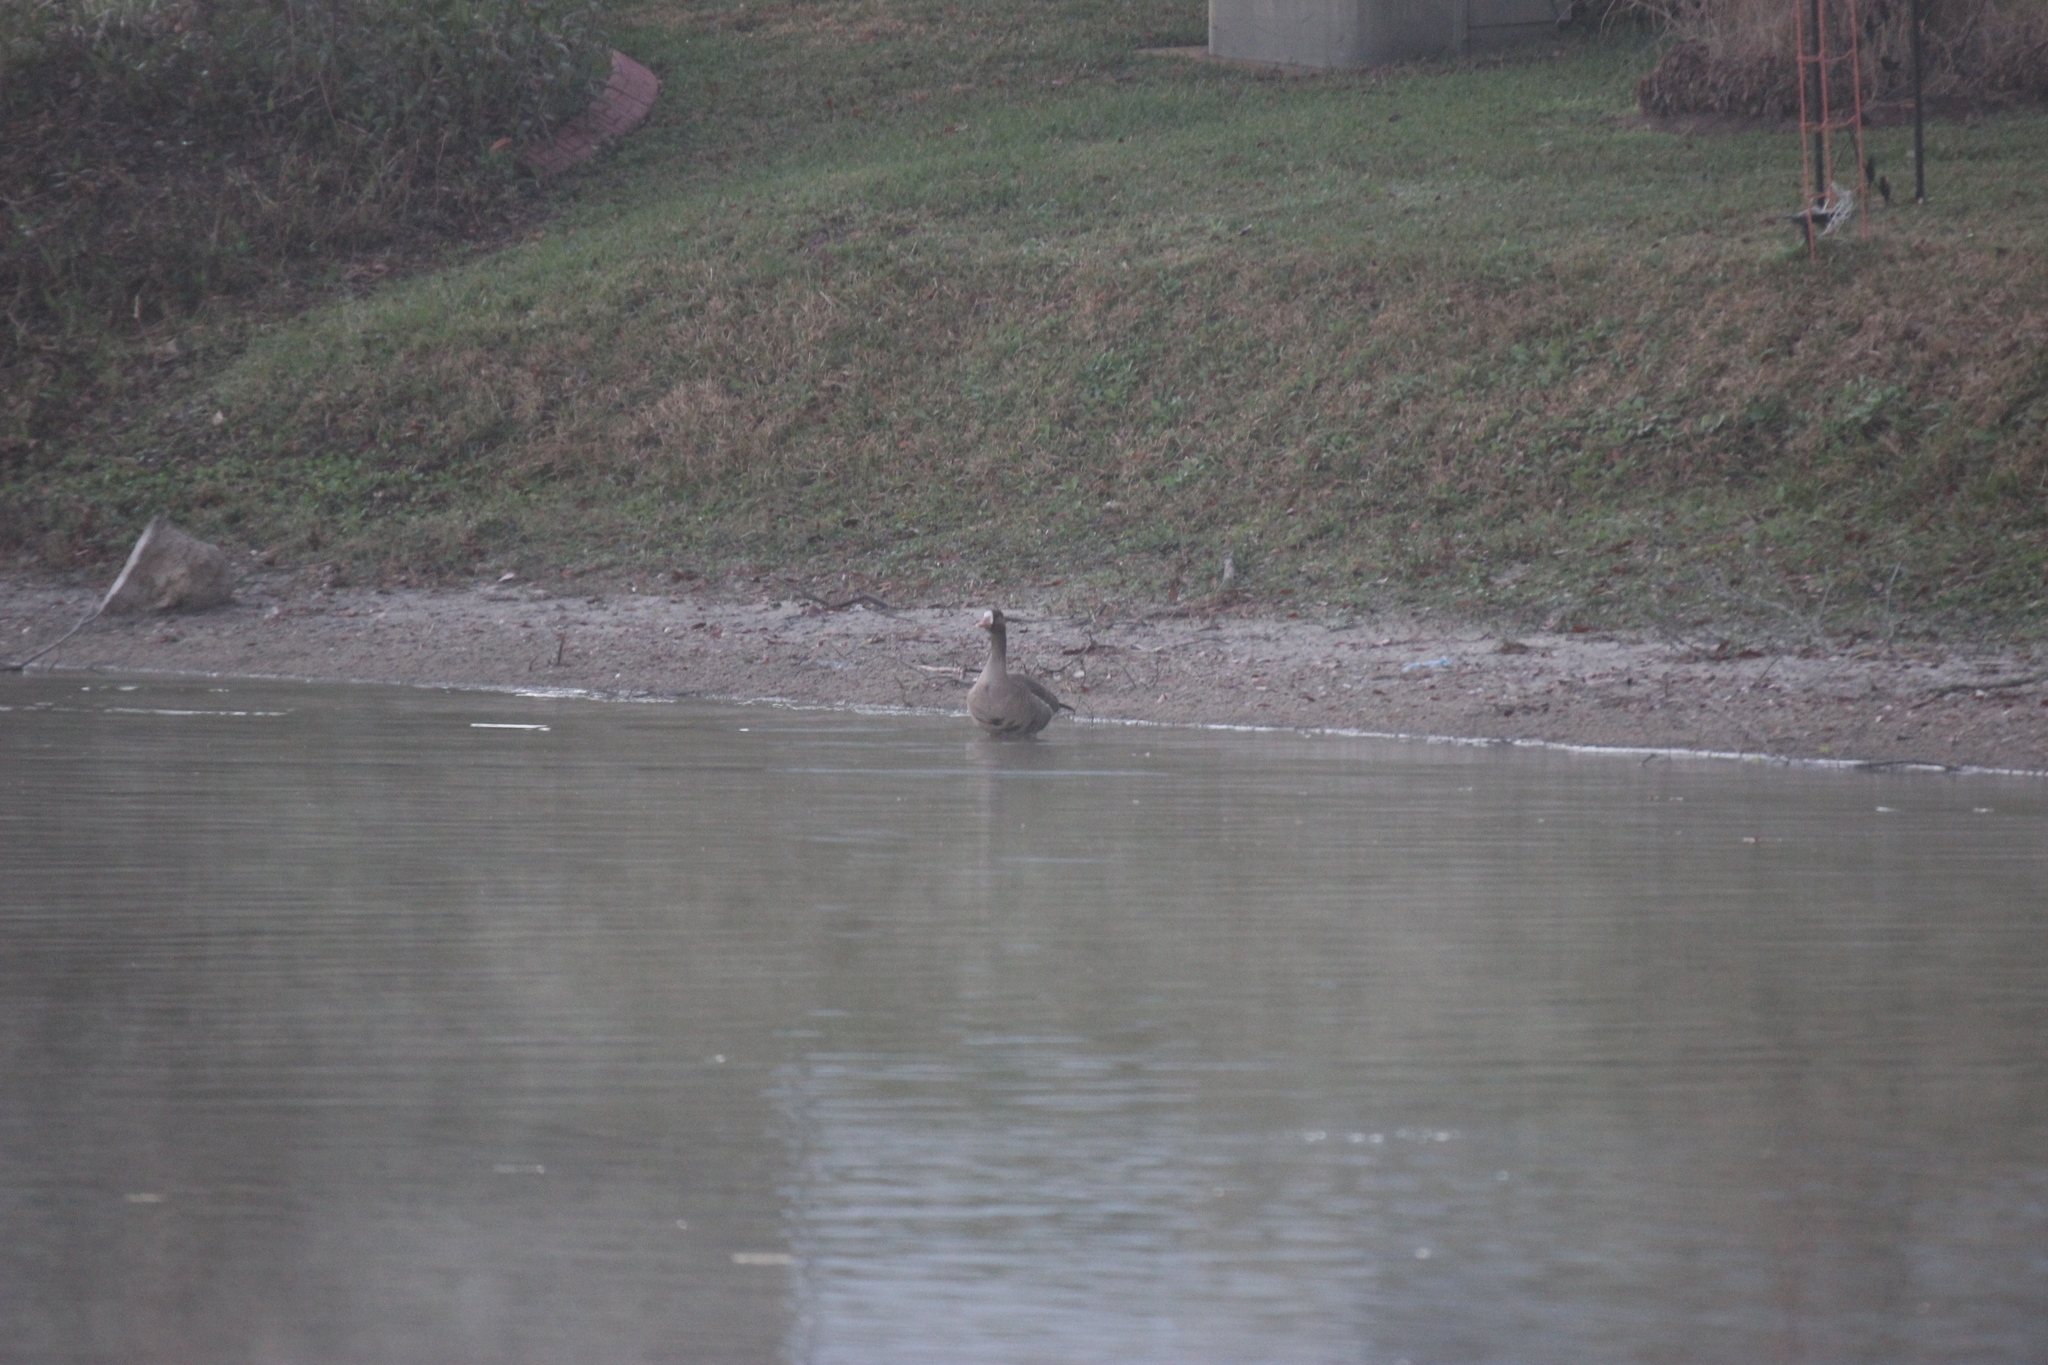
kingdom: Animalia
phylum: Chordata
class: Aves
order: Anseriformes
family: Anatidae
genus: Anser
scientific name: Anser albifrons
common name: Greater white-fronted goose
